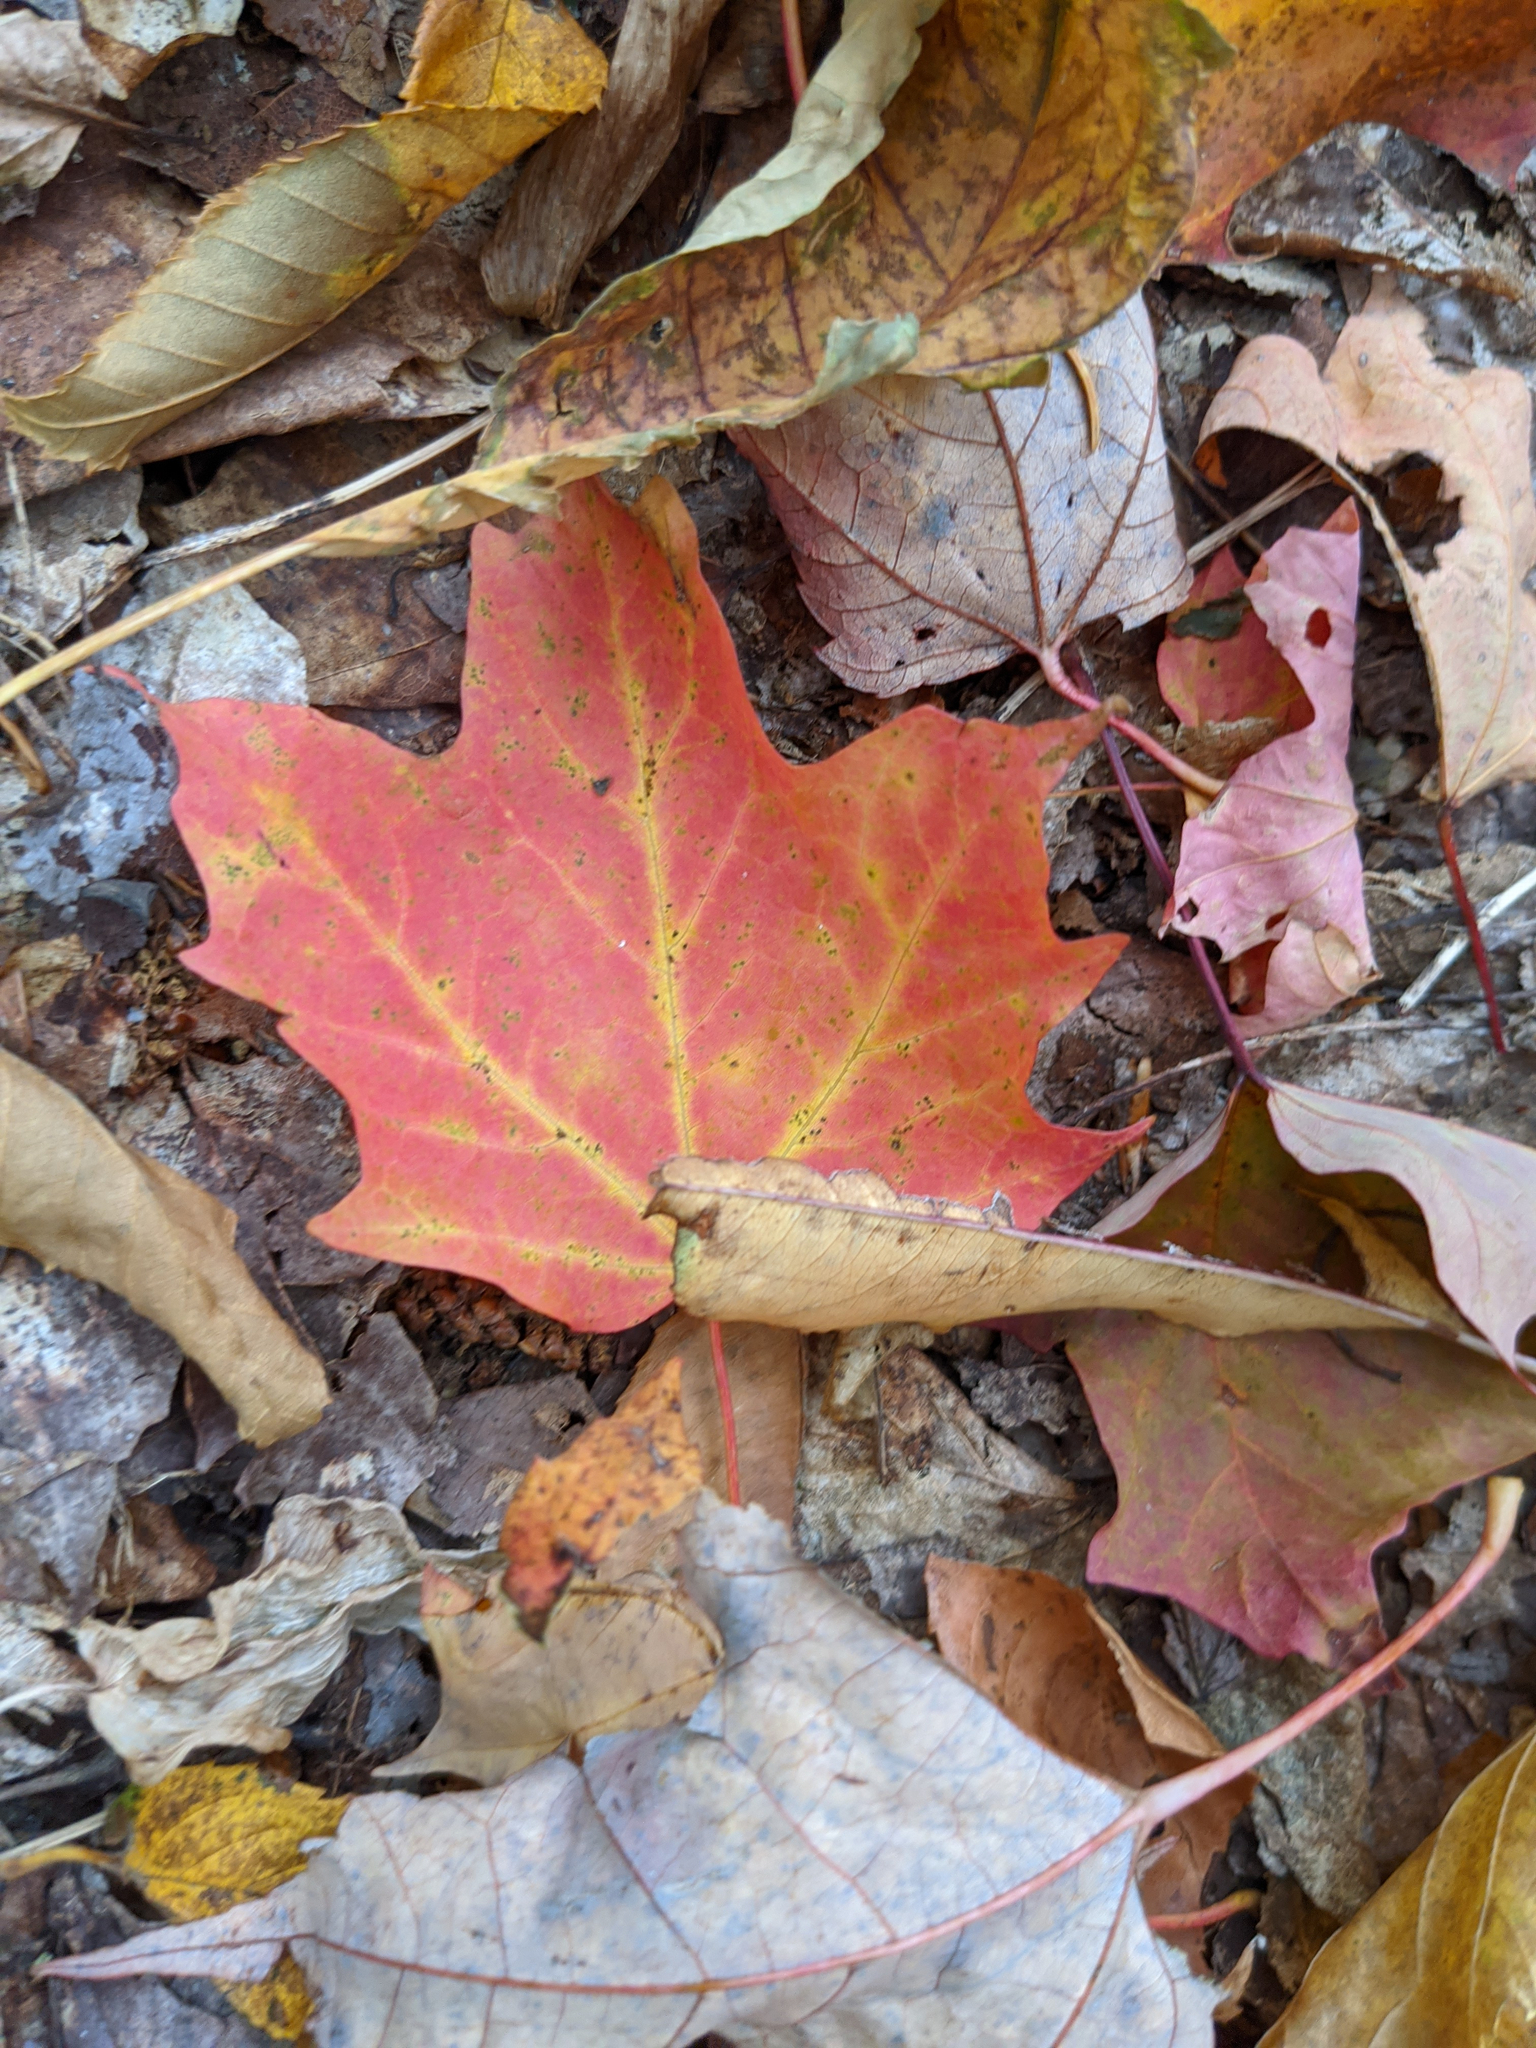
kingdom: Plantae
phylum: Tracheophyta
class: Magnoliopsida
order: Sapindales
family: Sapindaceae
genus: Acer
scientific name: Acer saccharum
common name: Sugar maple
